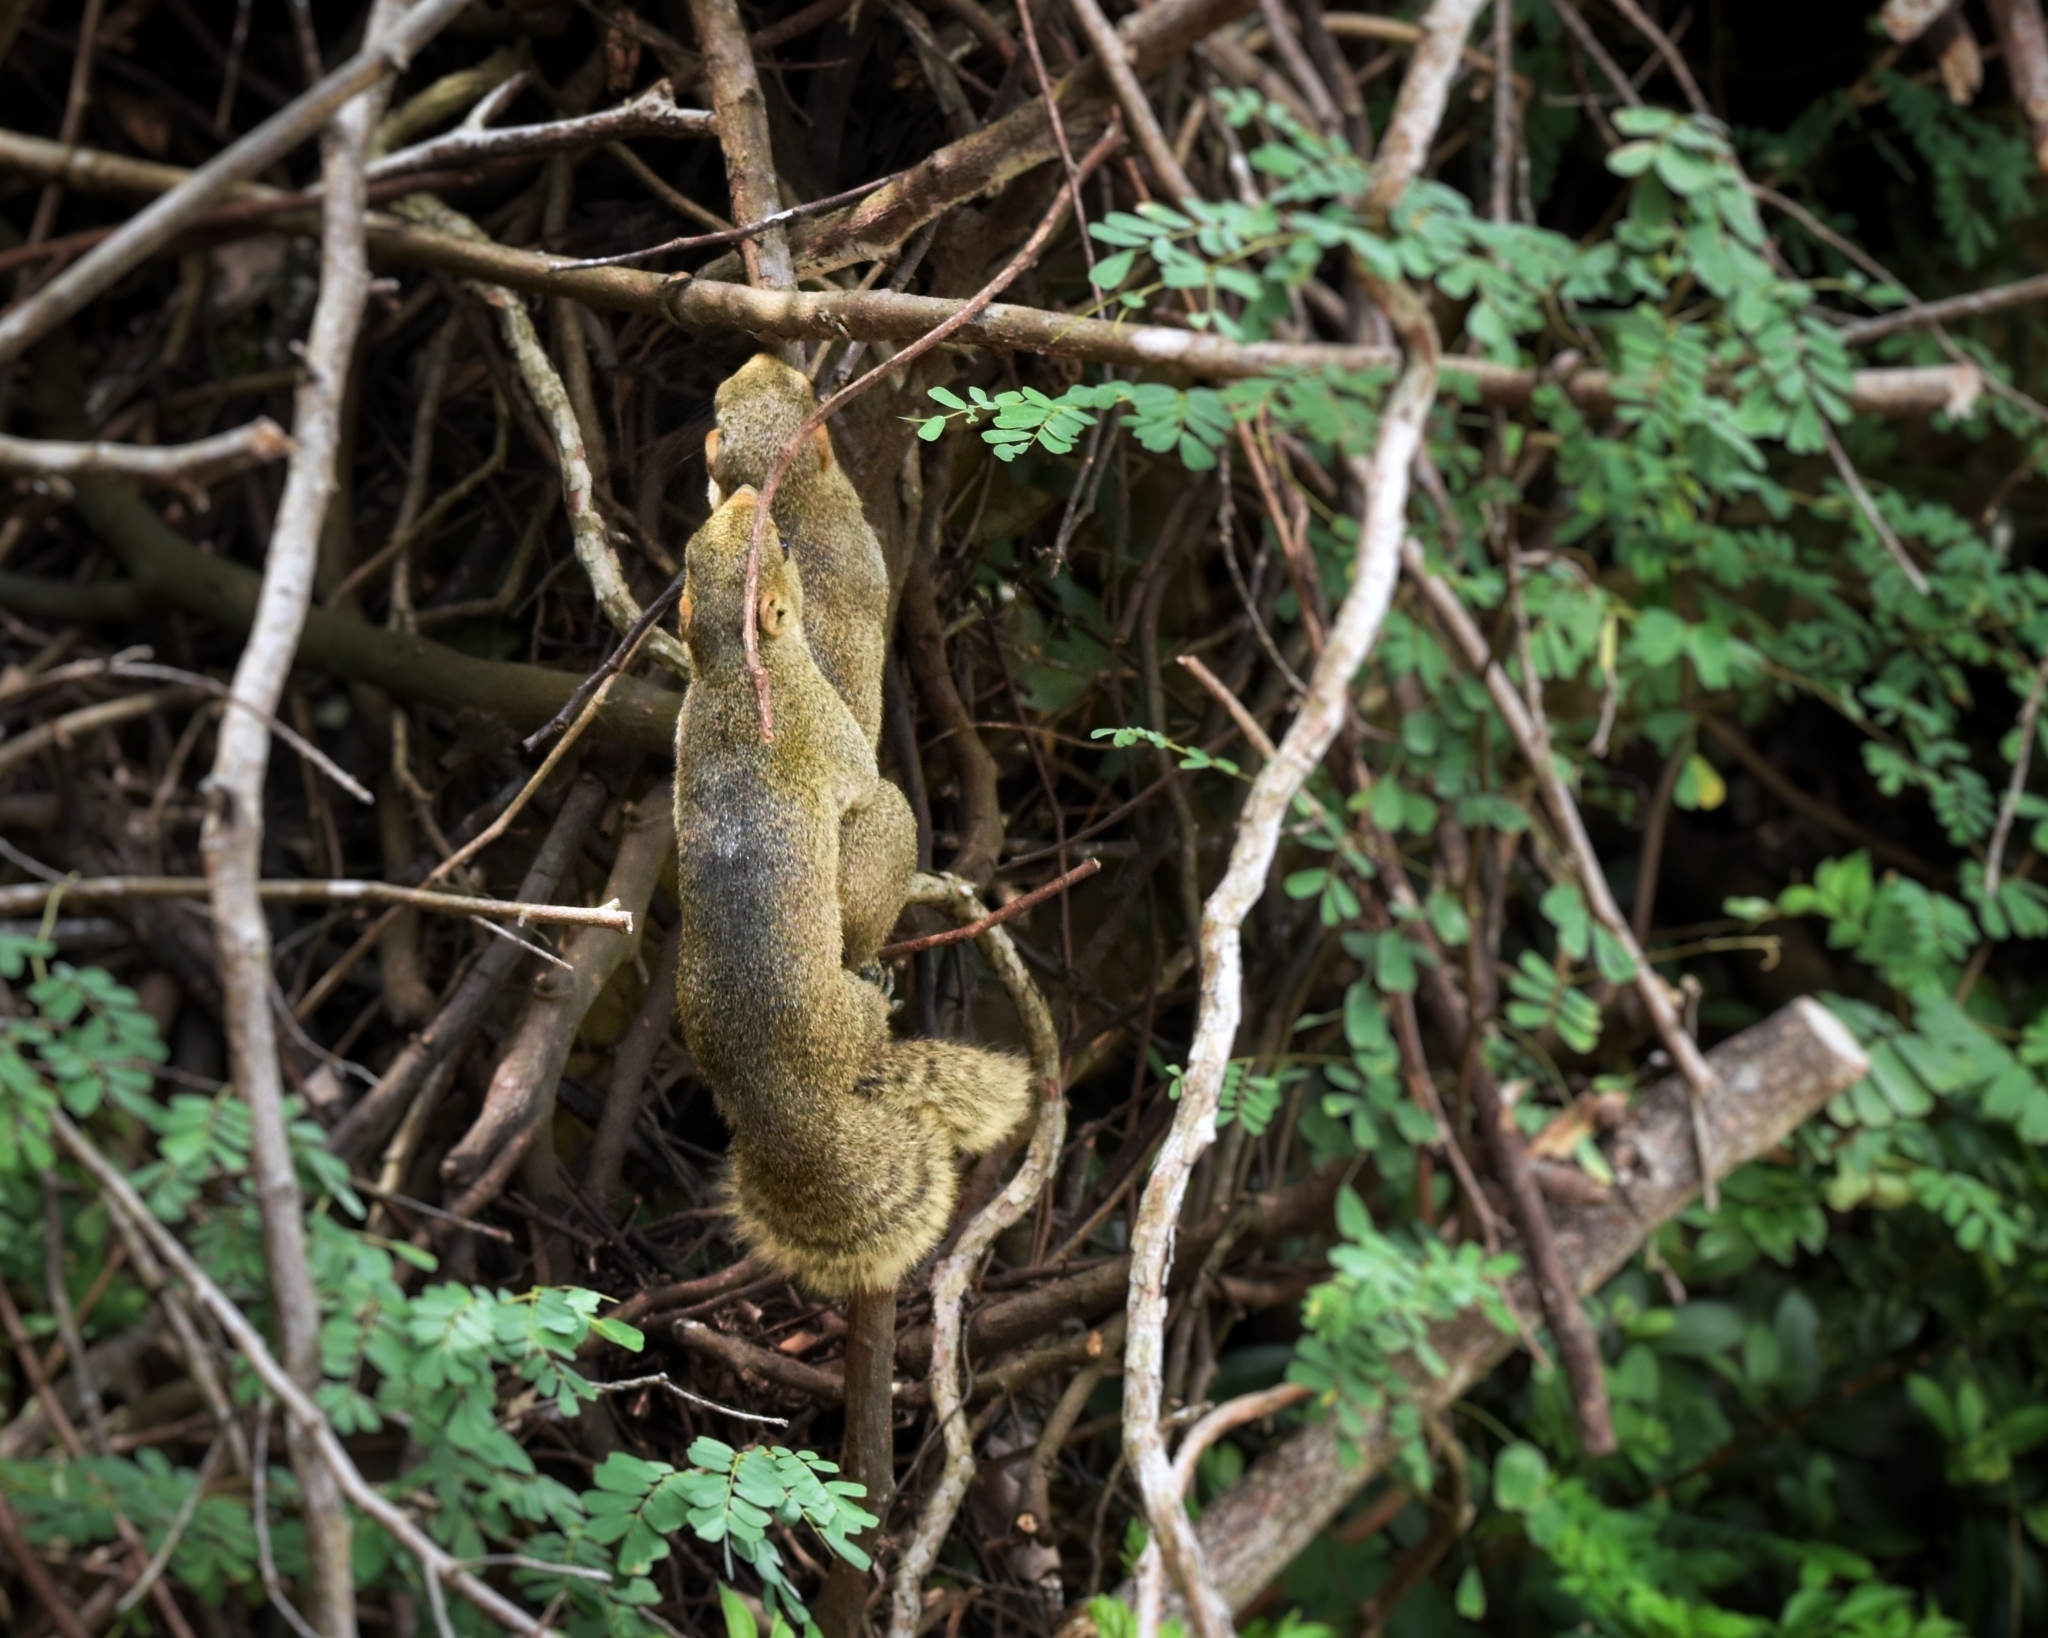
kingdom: Animalia
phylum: Chordata
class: Mammalia
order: Rodentia
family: Sciuridae
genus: Callosciurus
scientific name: Callosciurus erythraeus
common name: Pallas's squirrel
